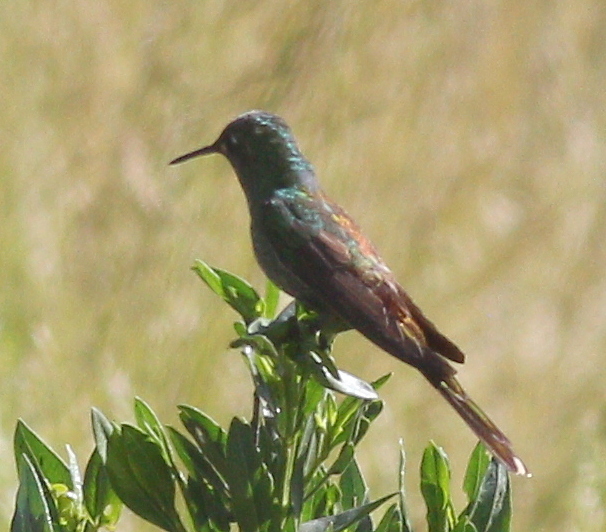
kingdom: Animalia
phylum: Chordata
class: Aves
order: Apodiformes
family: Trochilidae
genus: Sappho
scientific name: Sappho sparganurus
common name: Red-tailed comet
